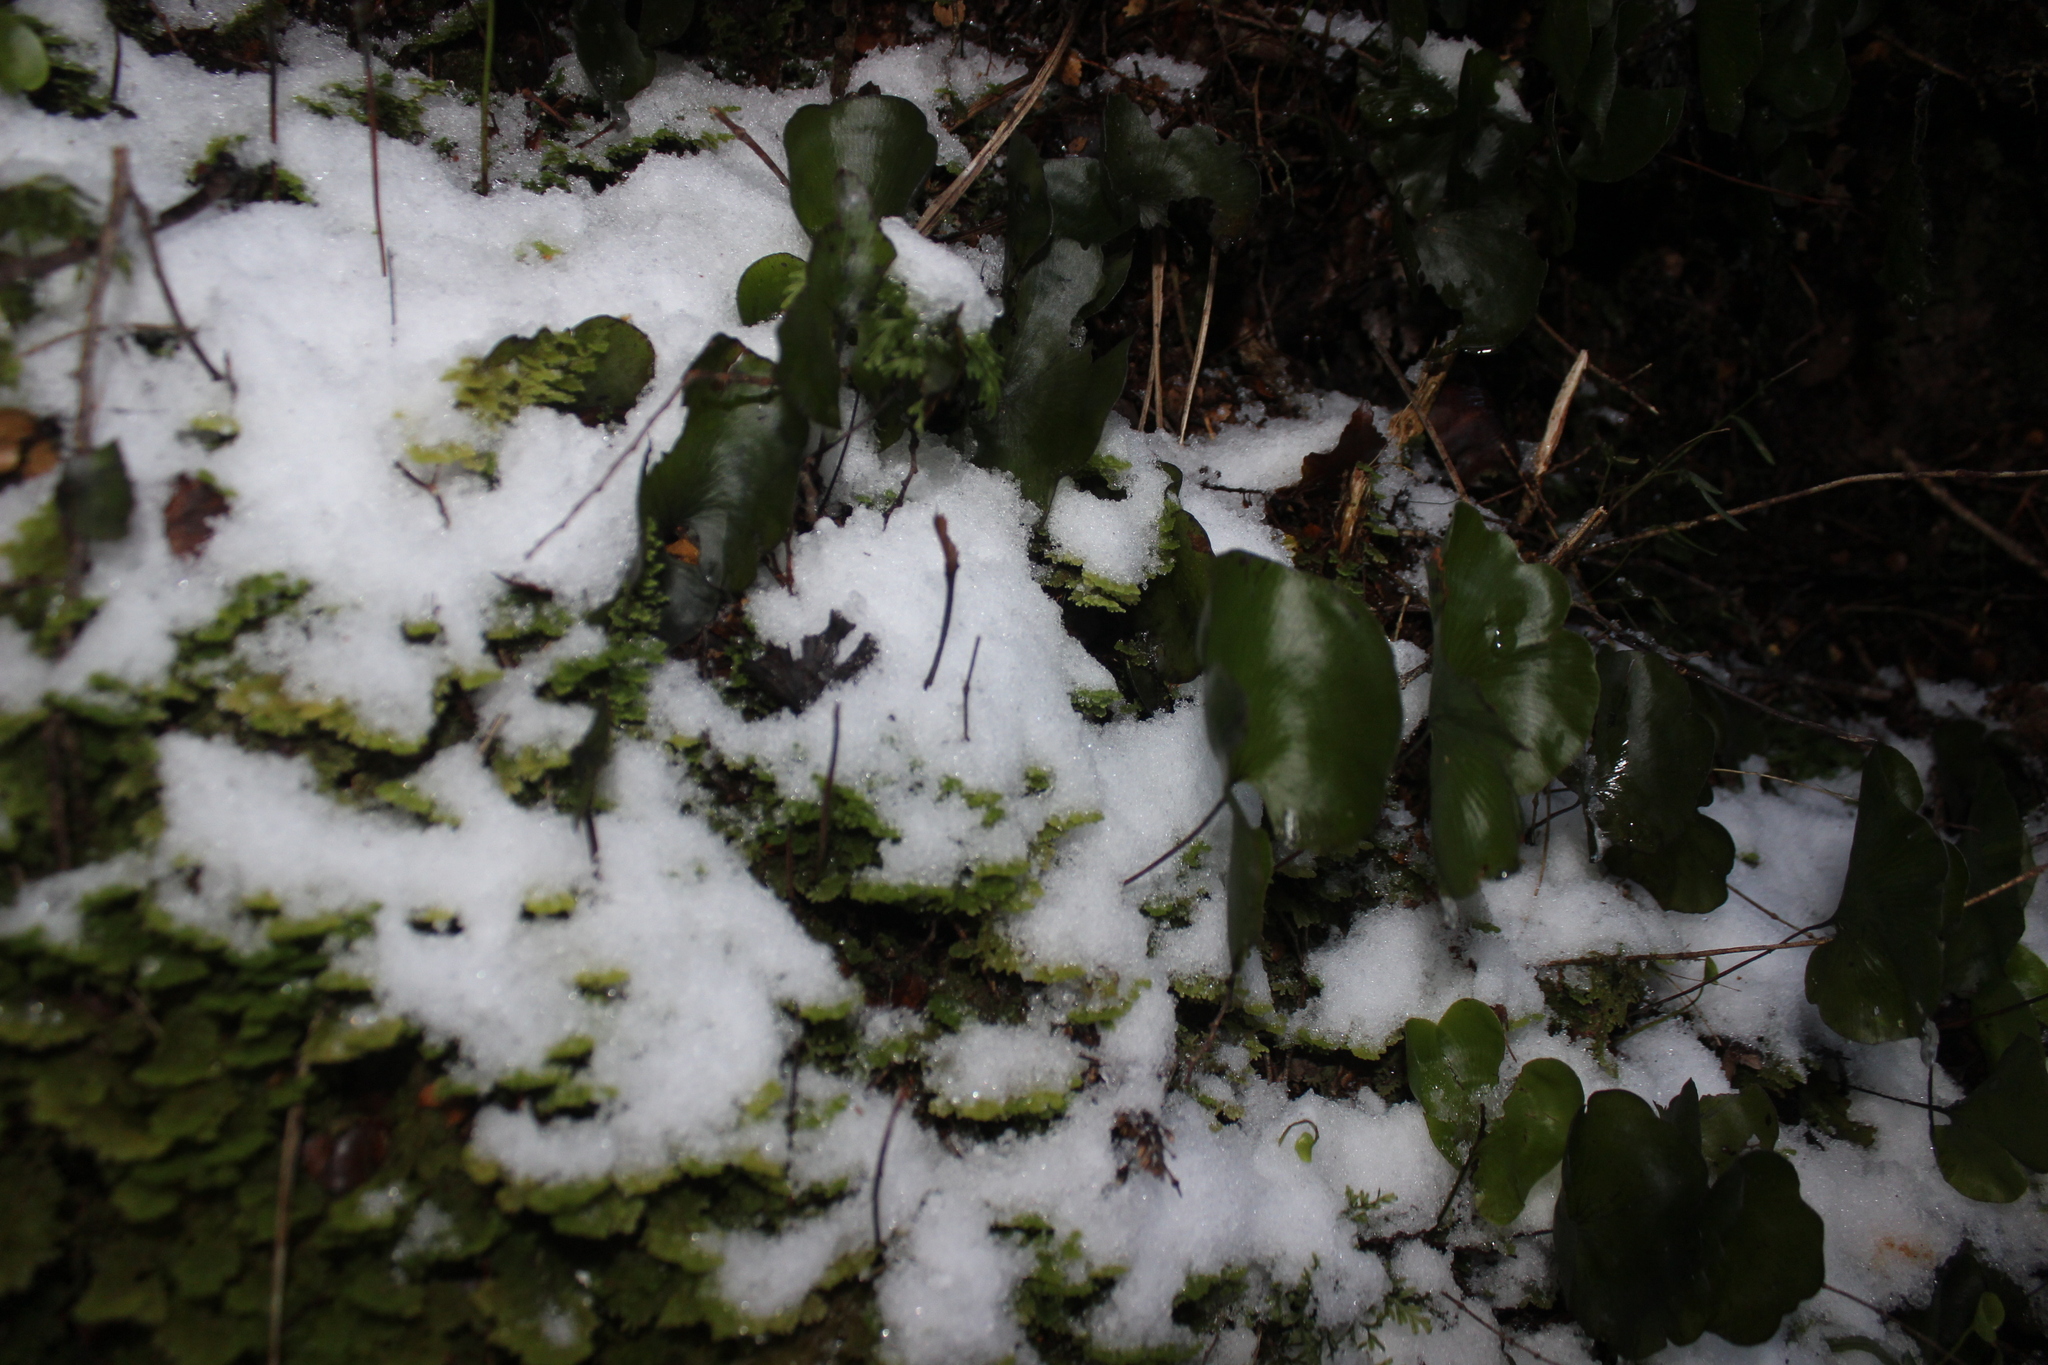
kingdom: Plantae
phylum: Tracheophyta
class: Polypodiopsida
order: Hymenophyllales
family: Hymenophyllaceae
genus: Hymenophyllum
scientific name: Hymenophyllum nephrophyllum
